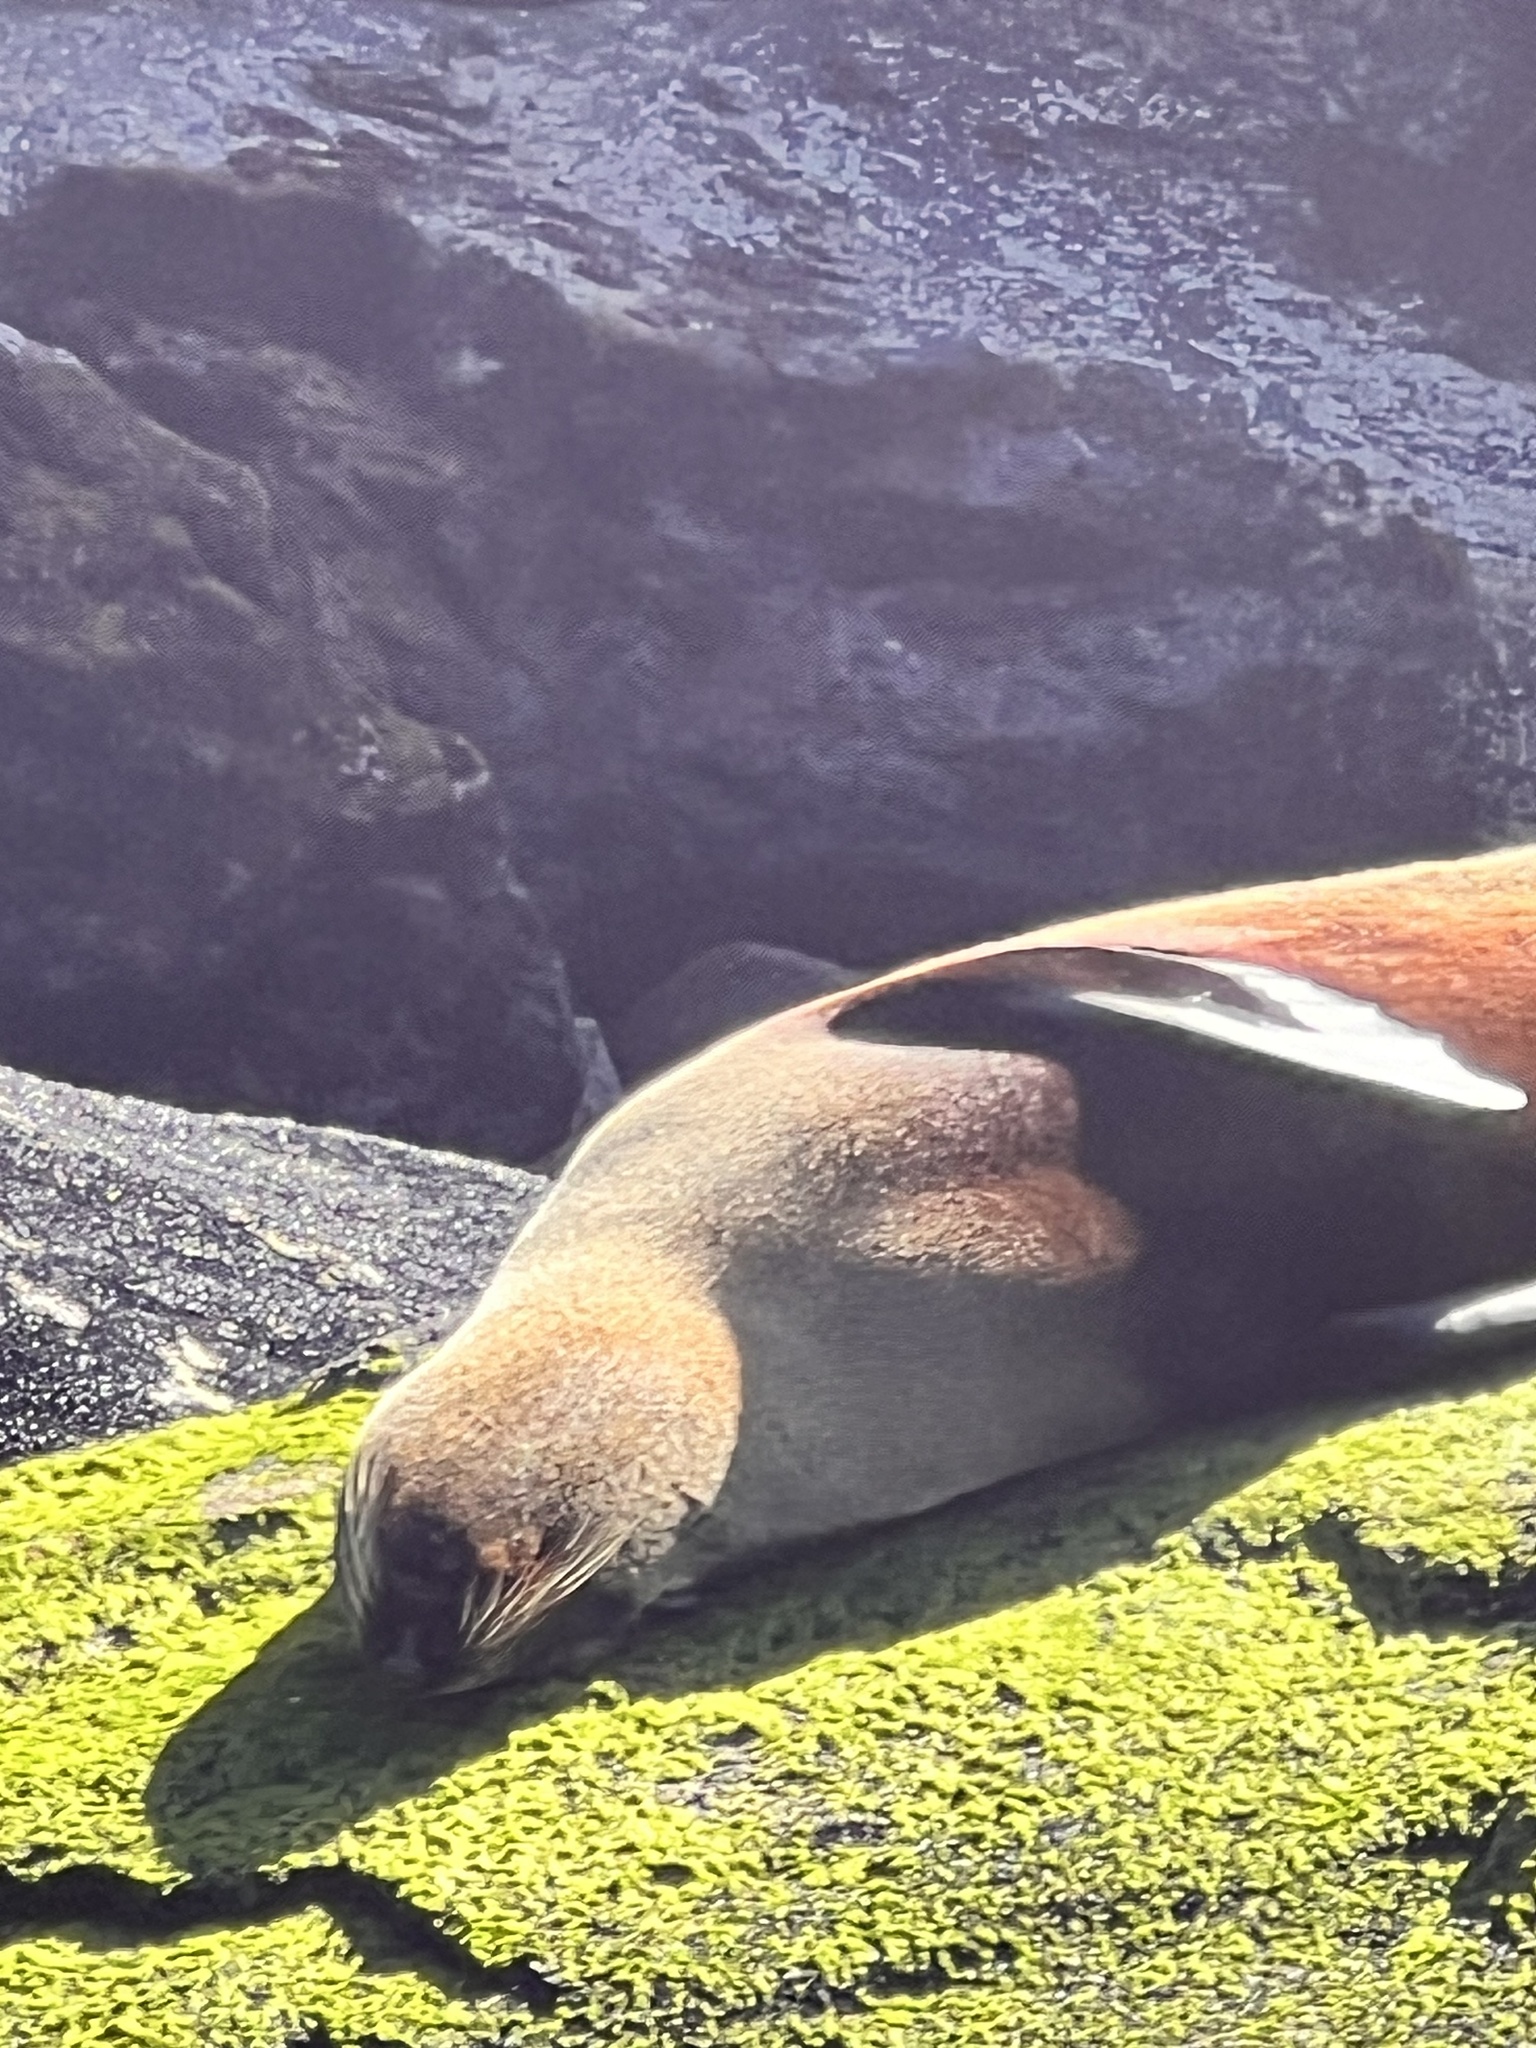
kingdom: Animalia
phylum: Chordata
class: Mammalia
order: Carnivora
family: Otariidae
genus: Arctocephalus
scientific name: Arctocephalus forsteri
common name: New zealand fur seal
